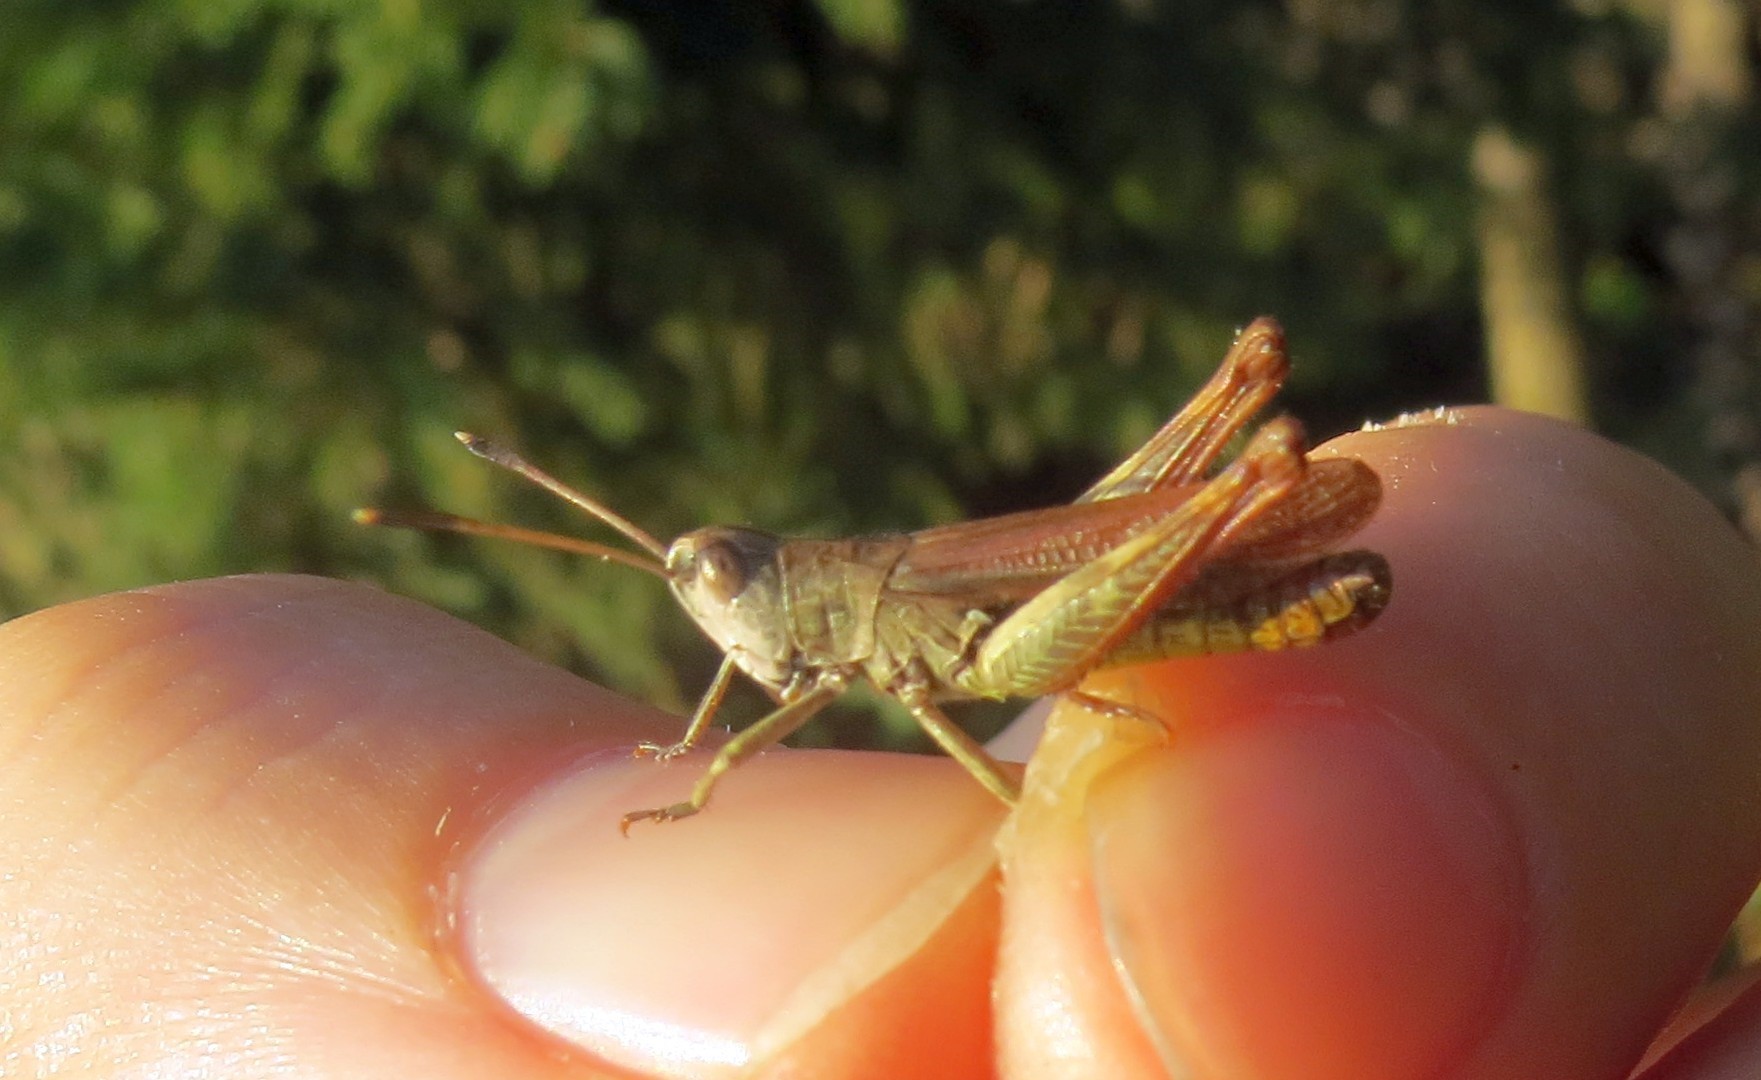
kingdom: Animalia
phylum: Arthropoda
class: Insecta
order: Orthoptera
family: Acrididae
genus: Gomphocerippus
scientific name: Gomphocerippus rufus
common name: Rufous grasshopper
